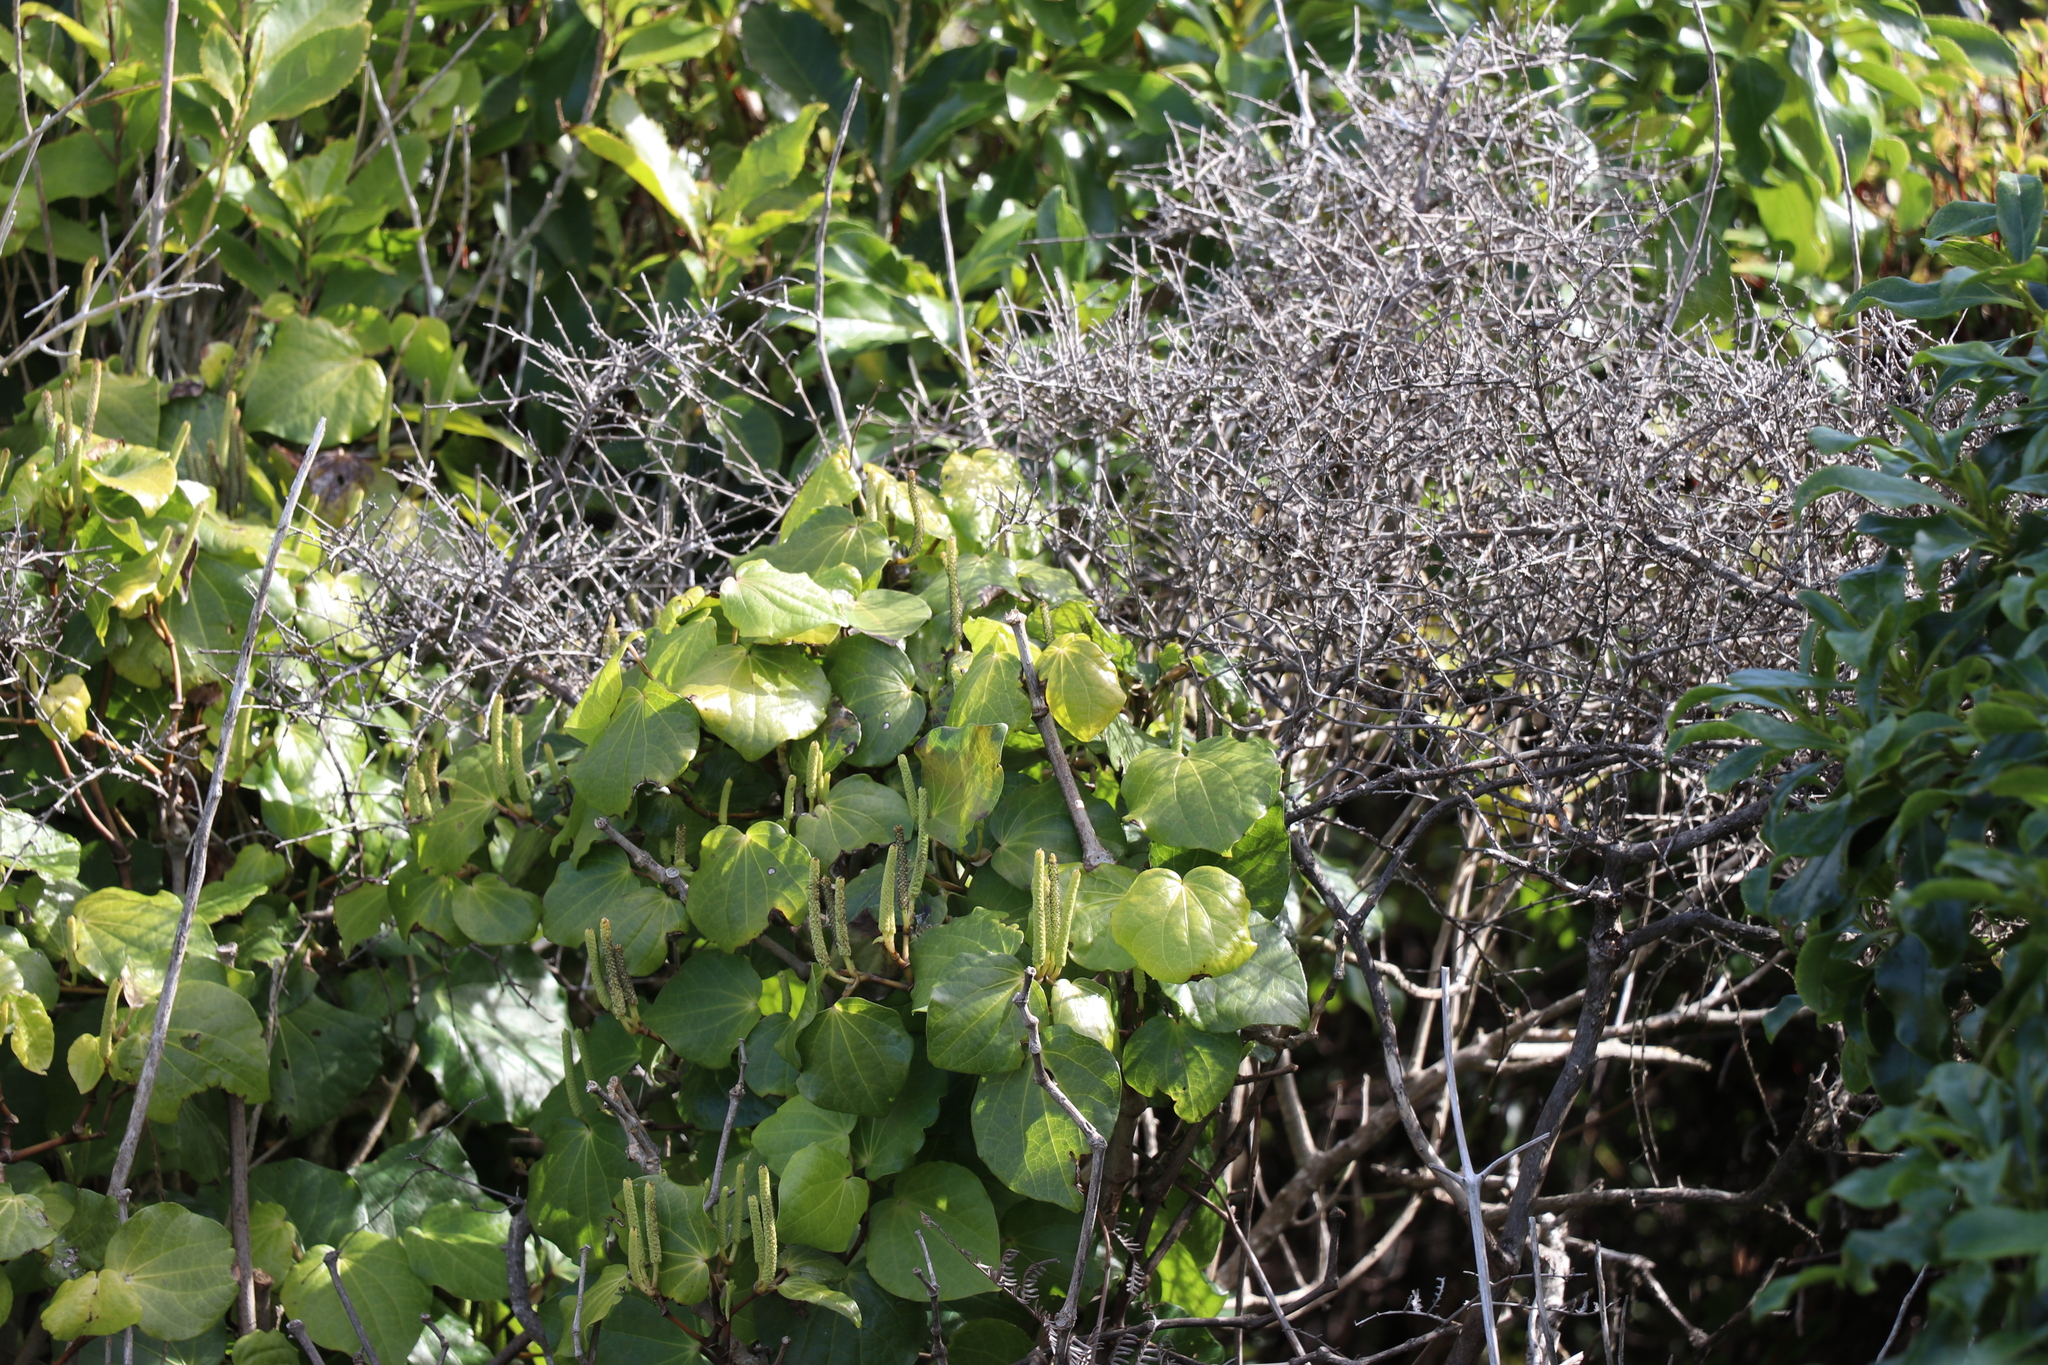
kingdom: Plantae
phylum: Tracheophyta
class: Magnoliopsida
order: Piperales
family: Piperaceae
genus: Macropiper
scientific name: Macropiper excelsum
